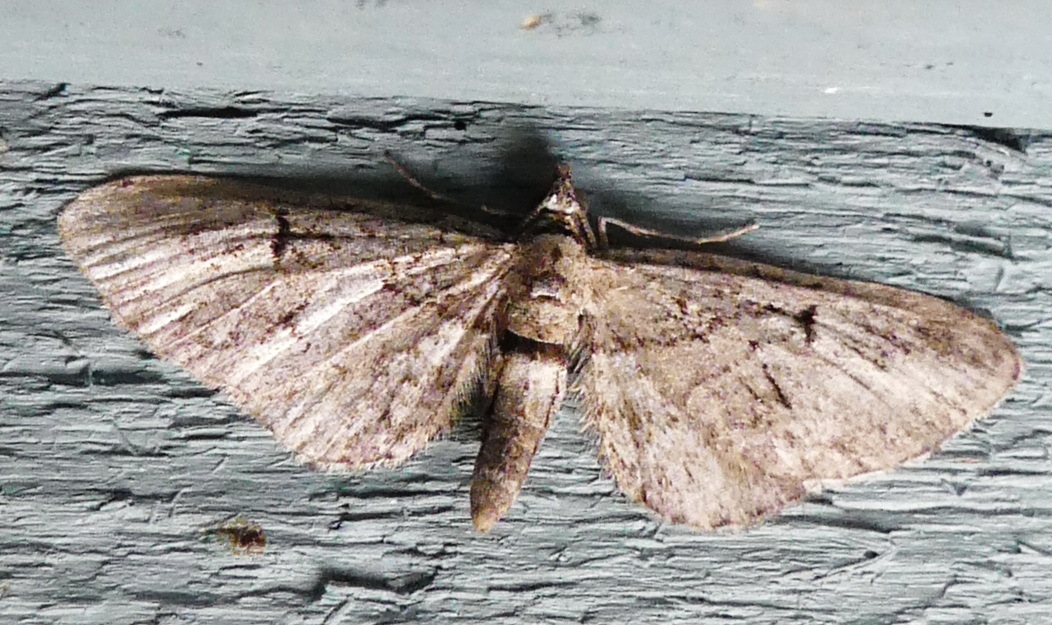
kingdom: Animalia
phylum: Arthropoda
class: Insecta
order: Lepidoptera
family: Geometridae
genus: Eupithecia
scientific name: Eupithecia interruptofasciata
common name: Juniper looper moth
